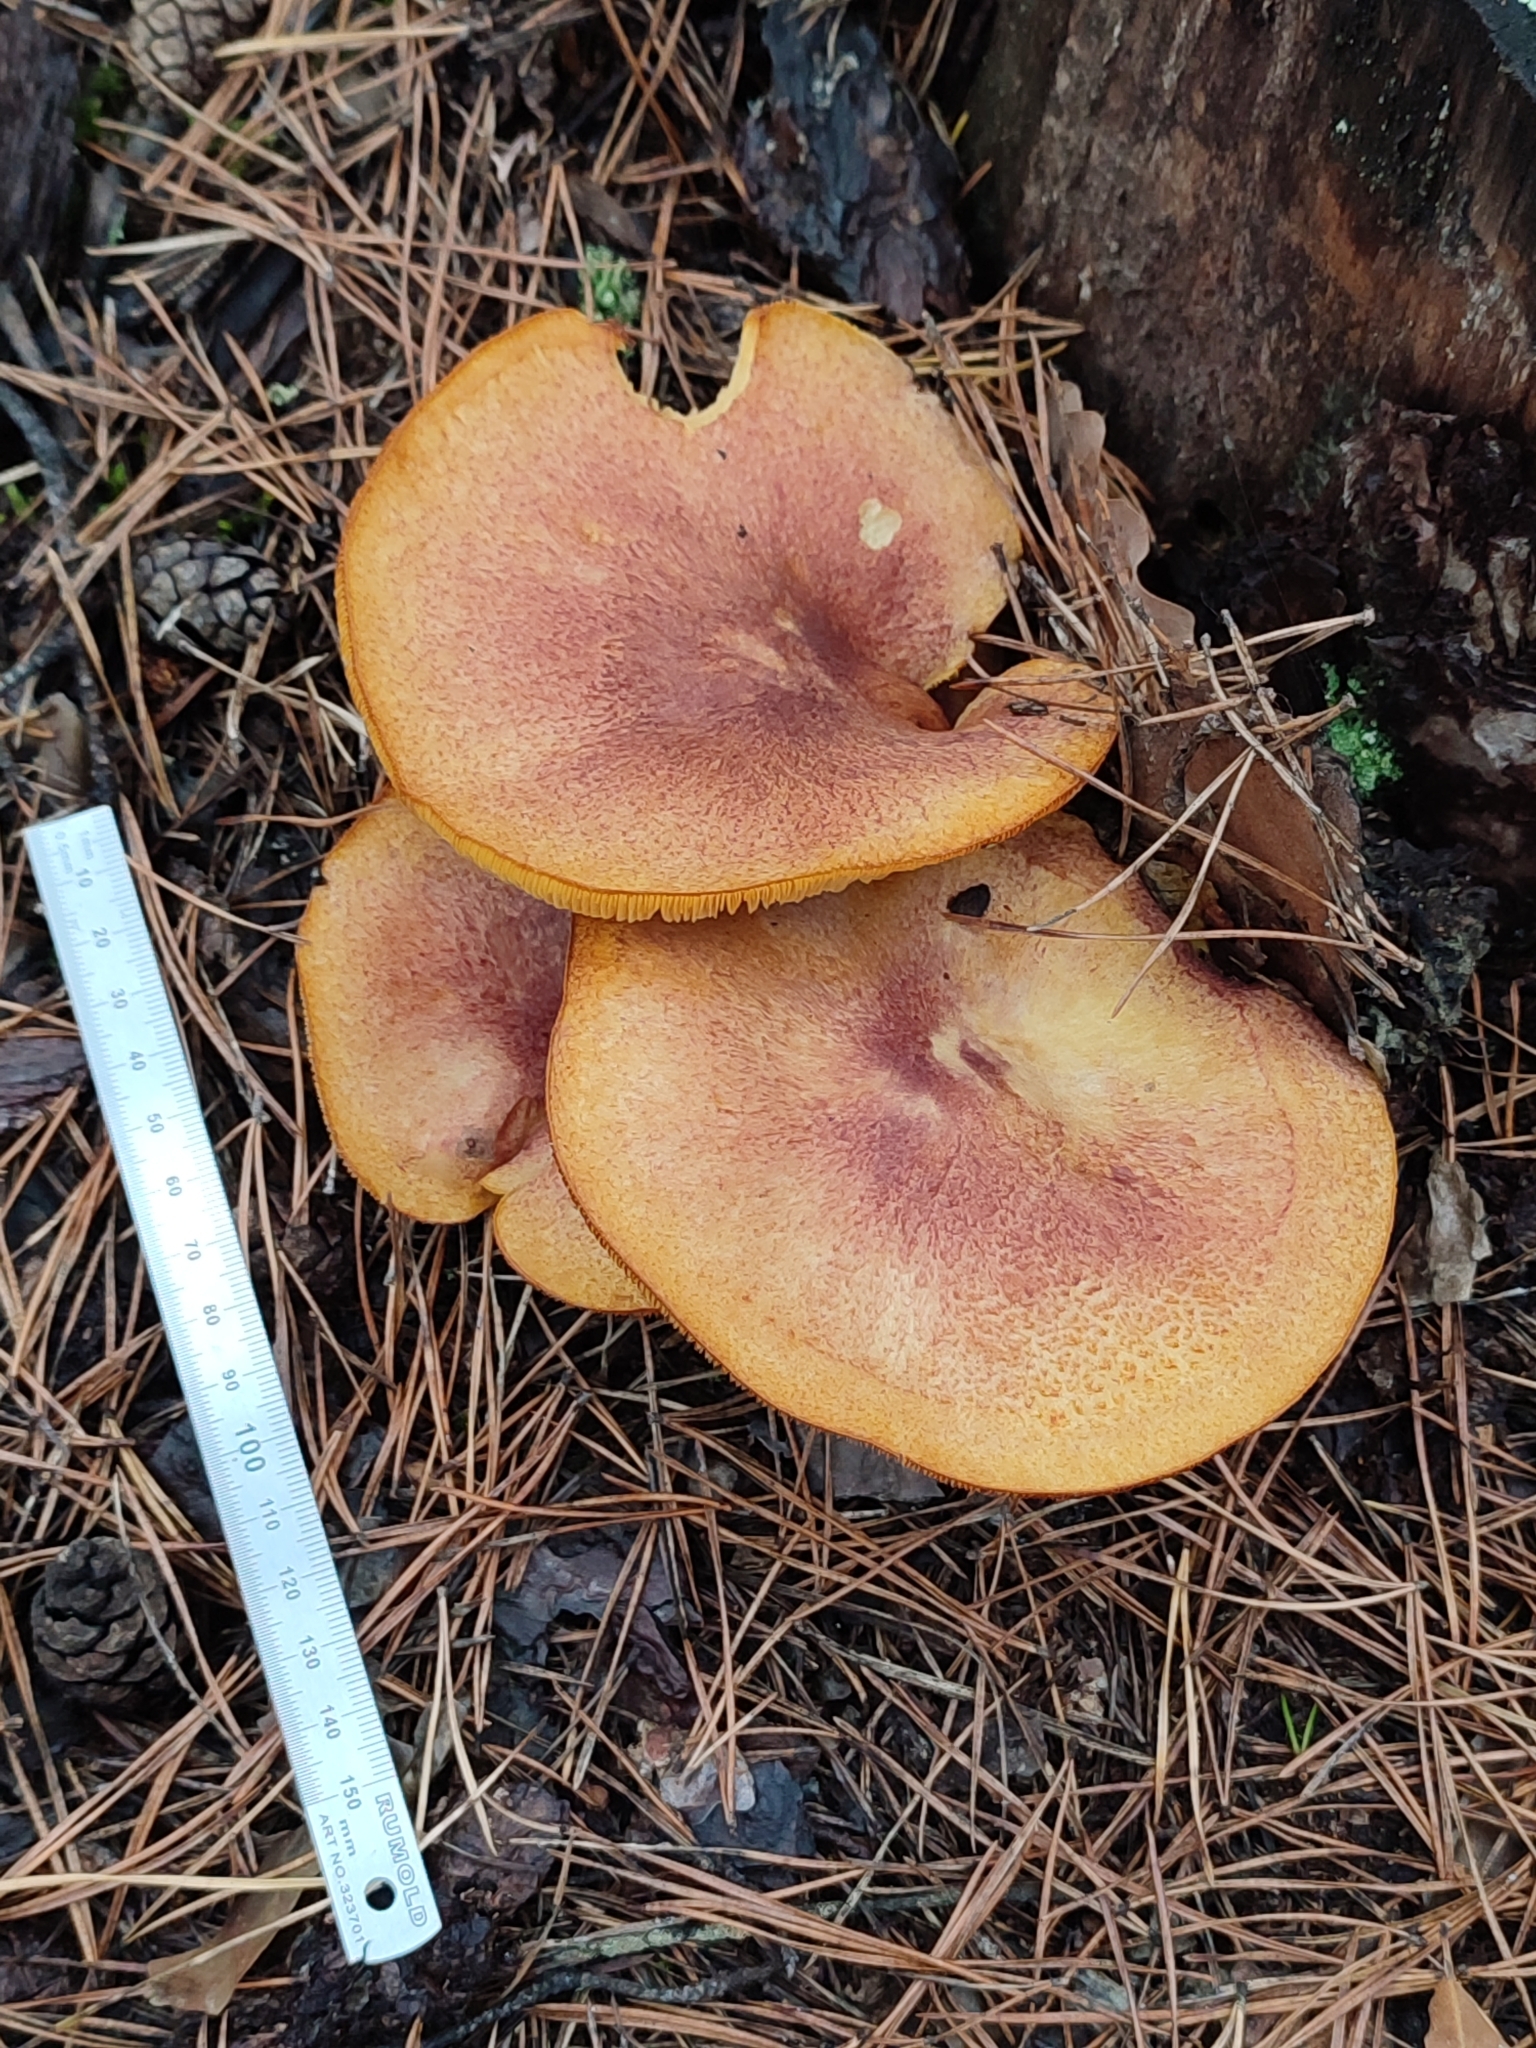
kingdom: Fungi
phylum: Basidiomycota
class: Agaricomycetes
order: Agaricales
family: Tricholomataceae
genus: Tricholomopsis
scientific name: Tricholomopsis rutilans
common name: Plums and custard
